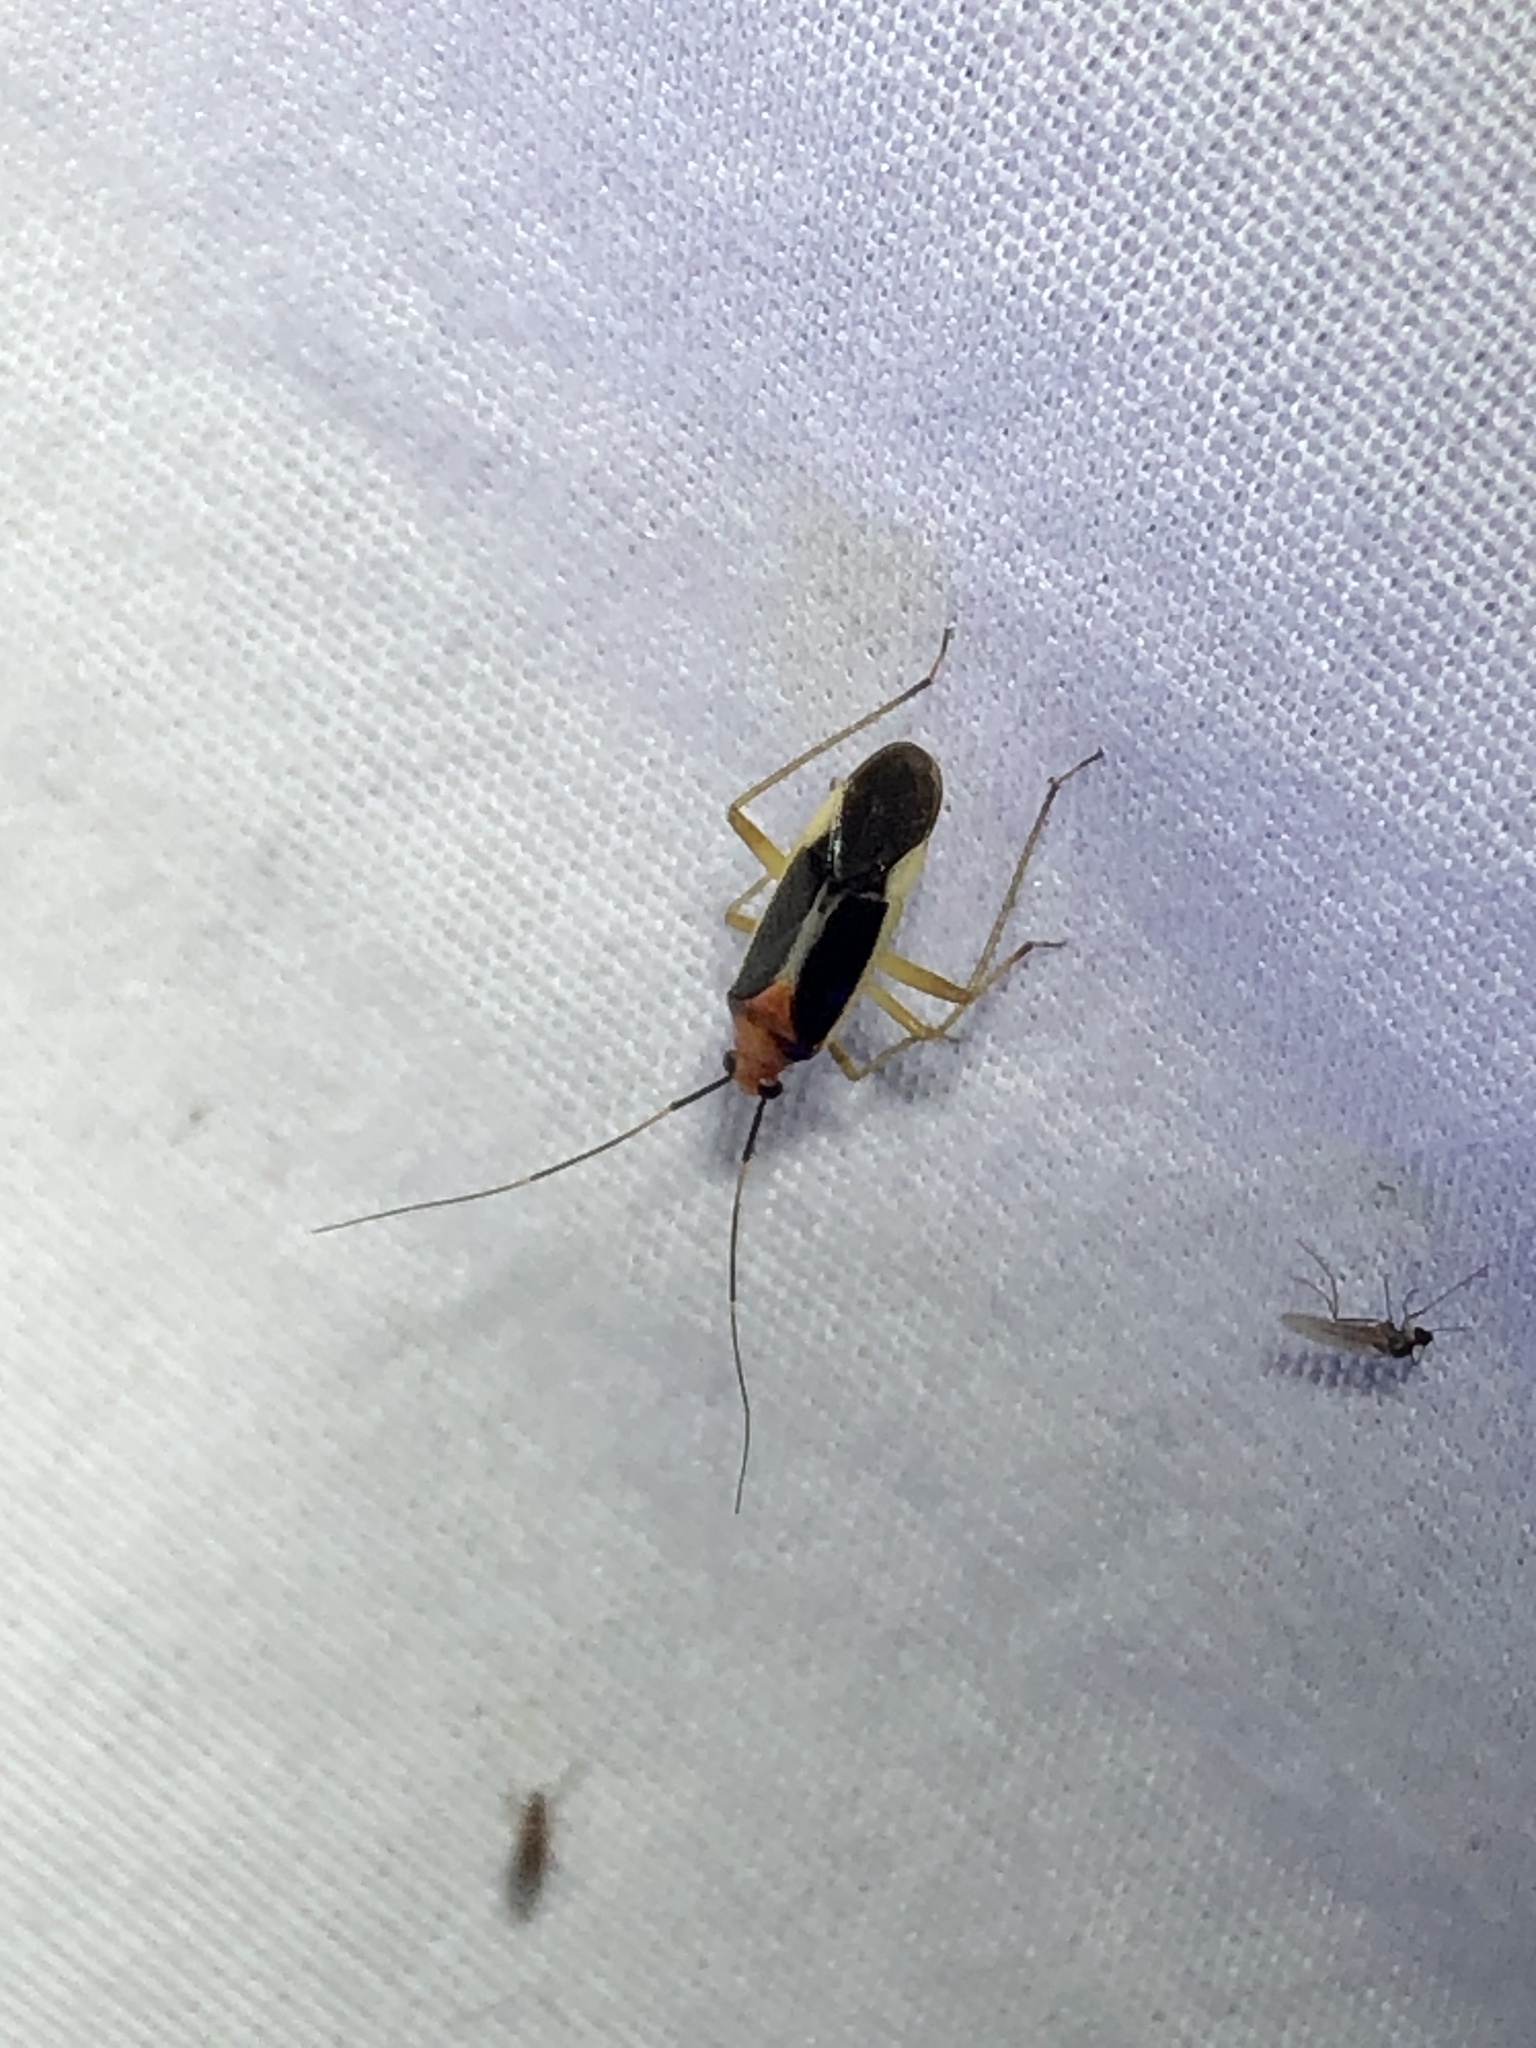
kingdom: Animalia
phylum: Arthropoda
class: Insecta
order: Hemiptera
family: Miridae
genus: Ganocapsus
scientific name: Ganocapsus filiformis
